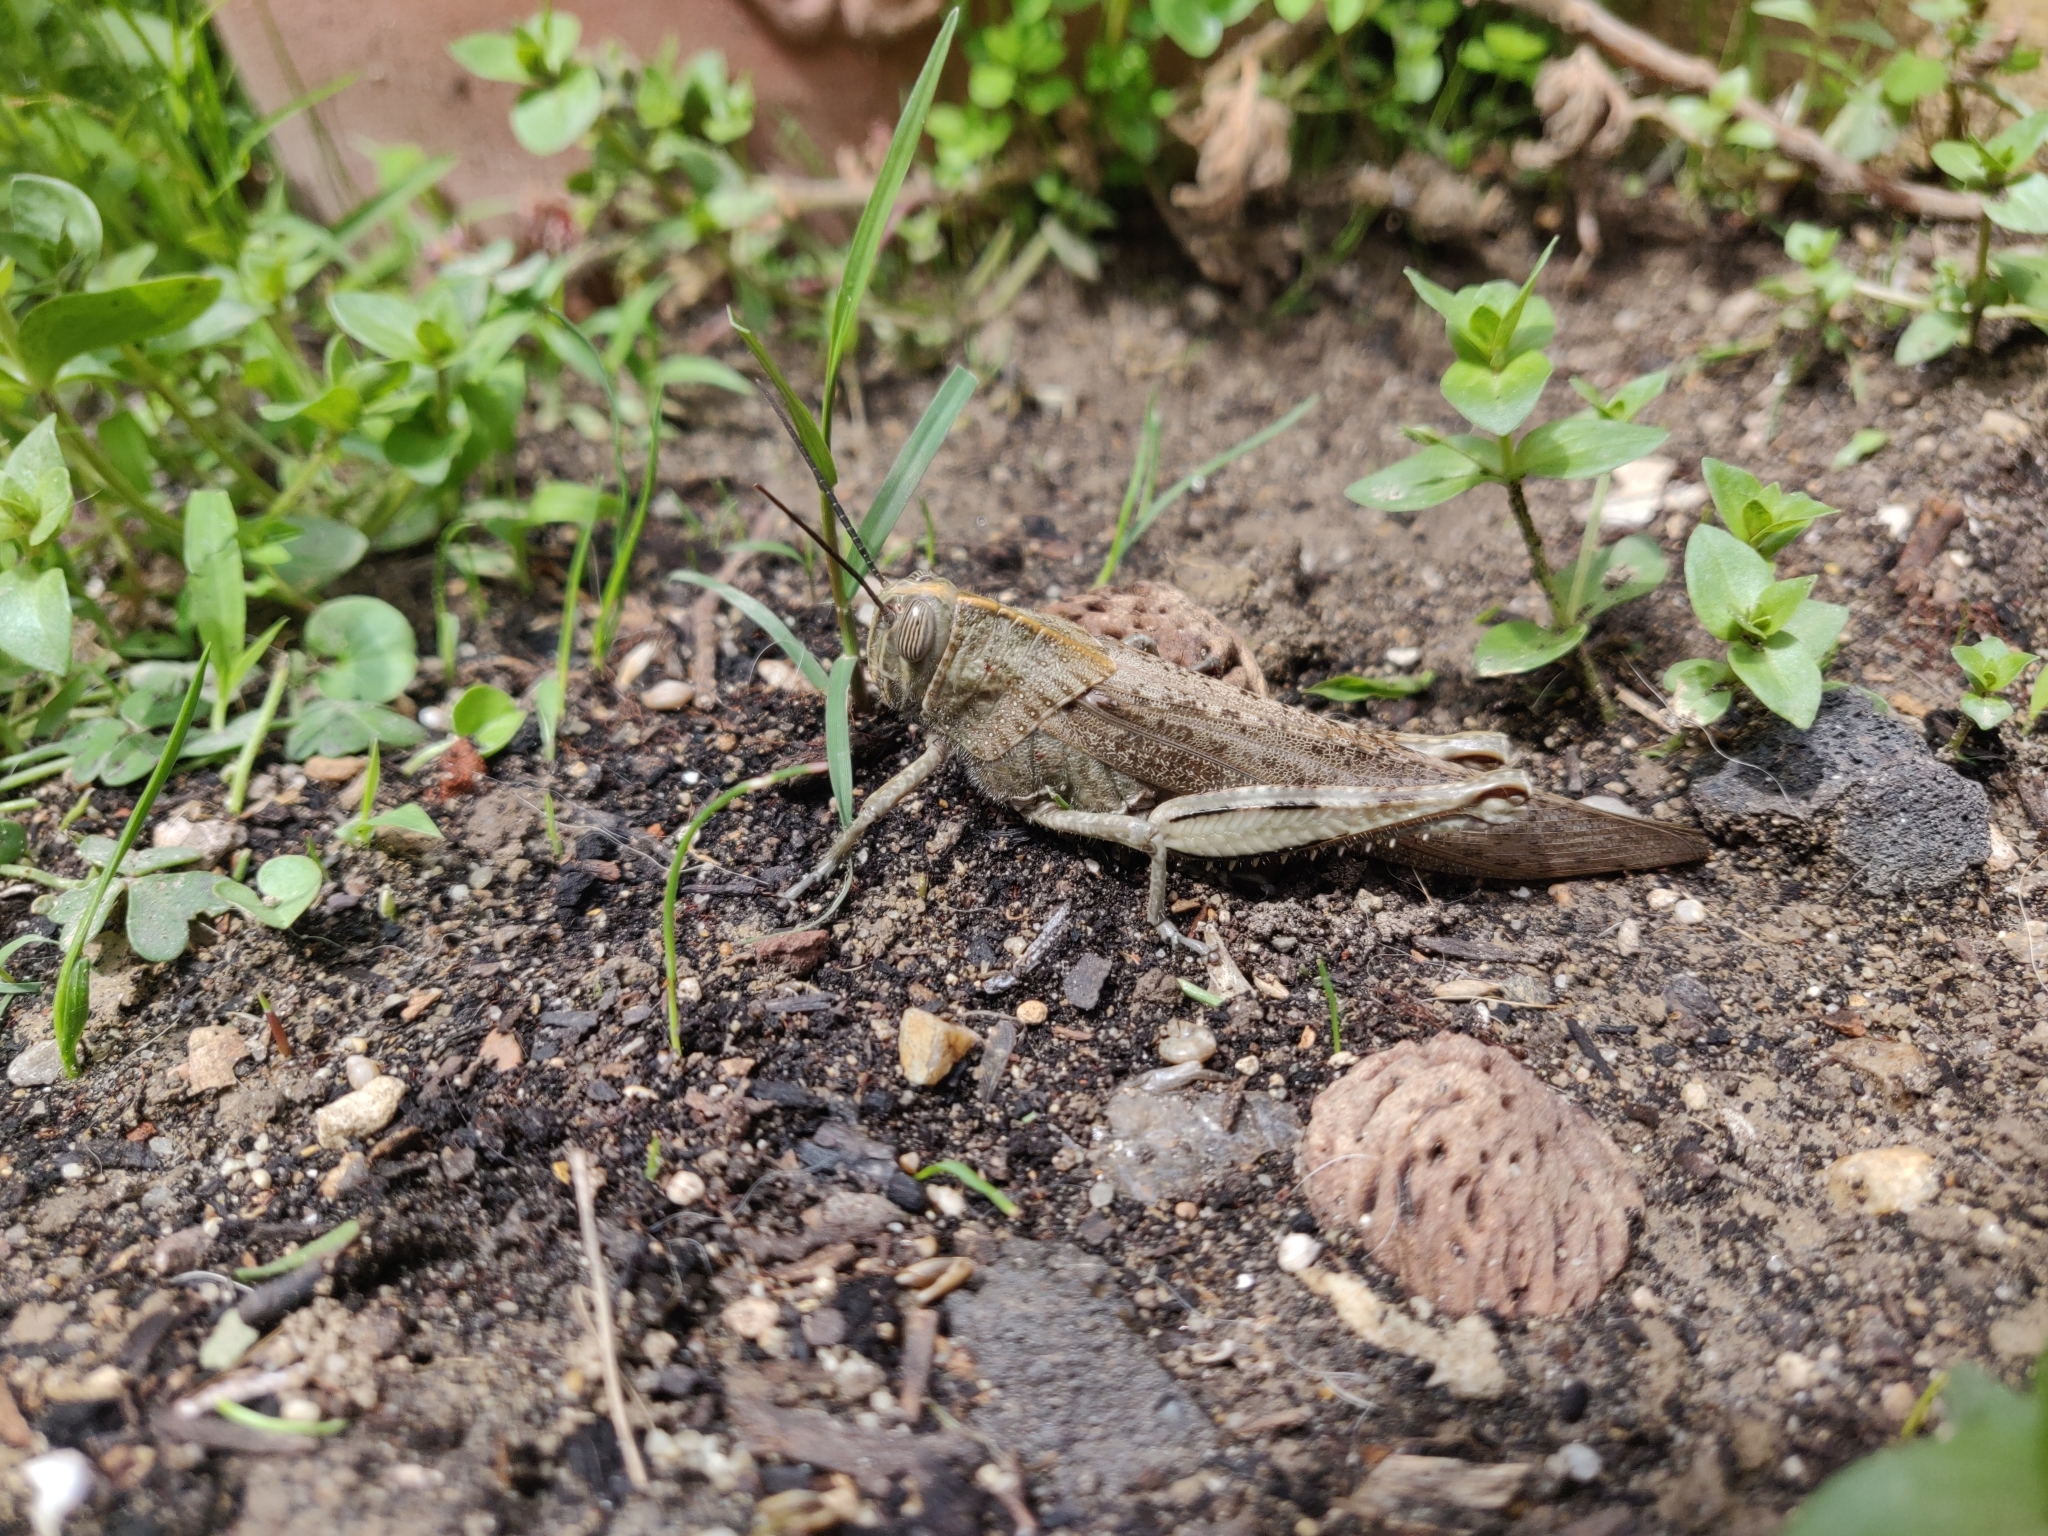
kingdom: Animalia
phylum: Arthropoda
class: Insecta
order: Orthoptera
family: Acrididae
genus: Anacridium
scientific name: Anacridium aegyptium
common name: Egyptian grasshopper
